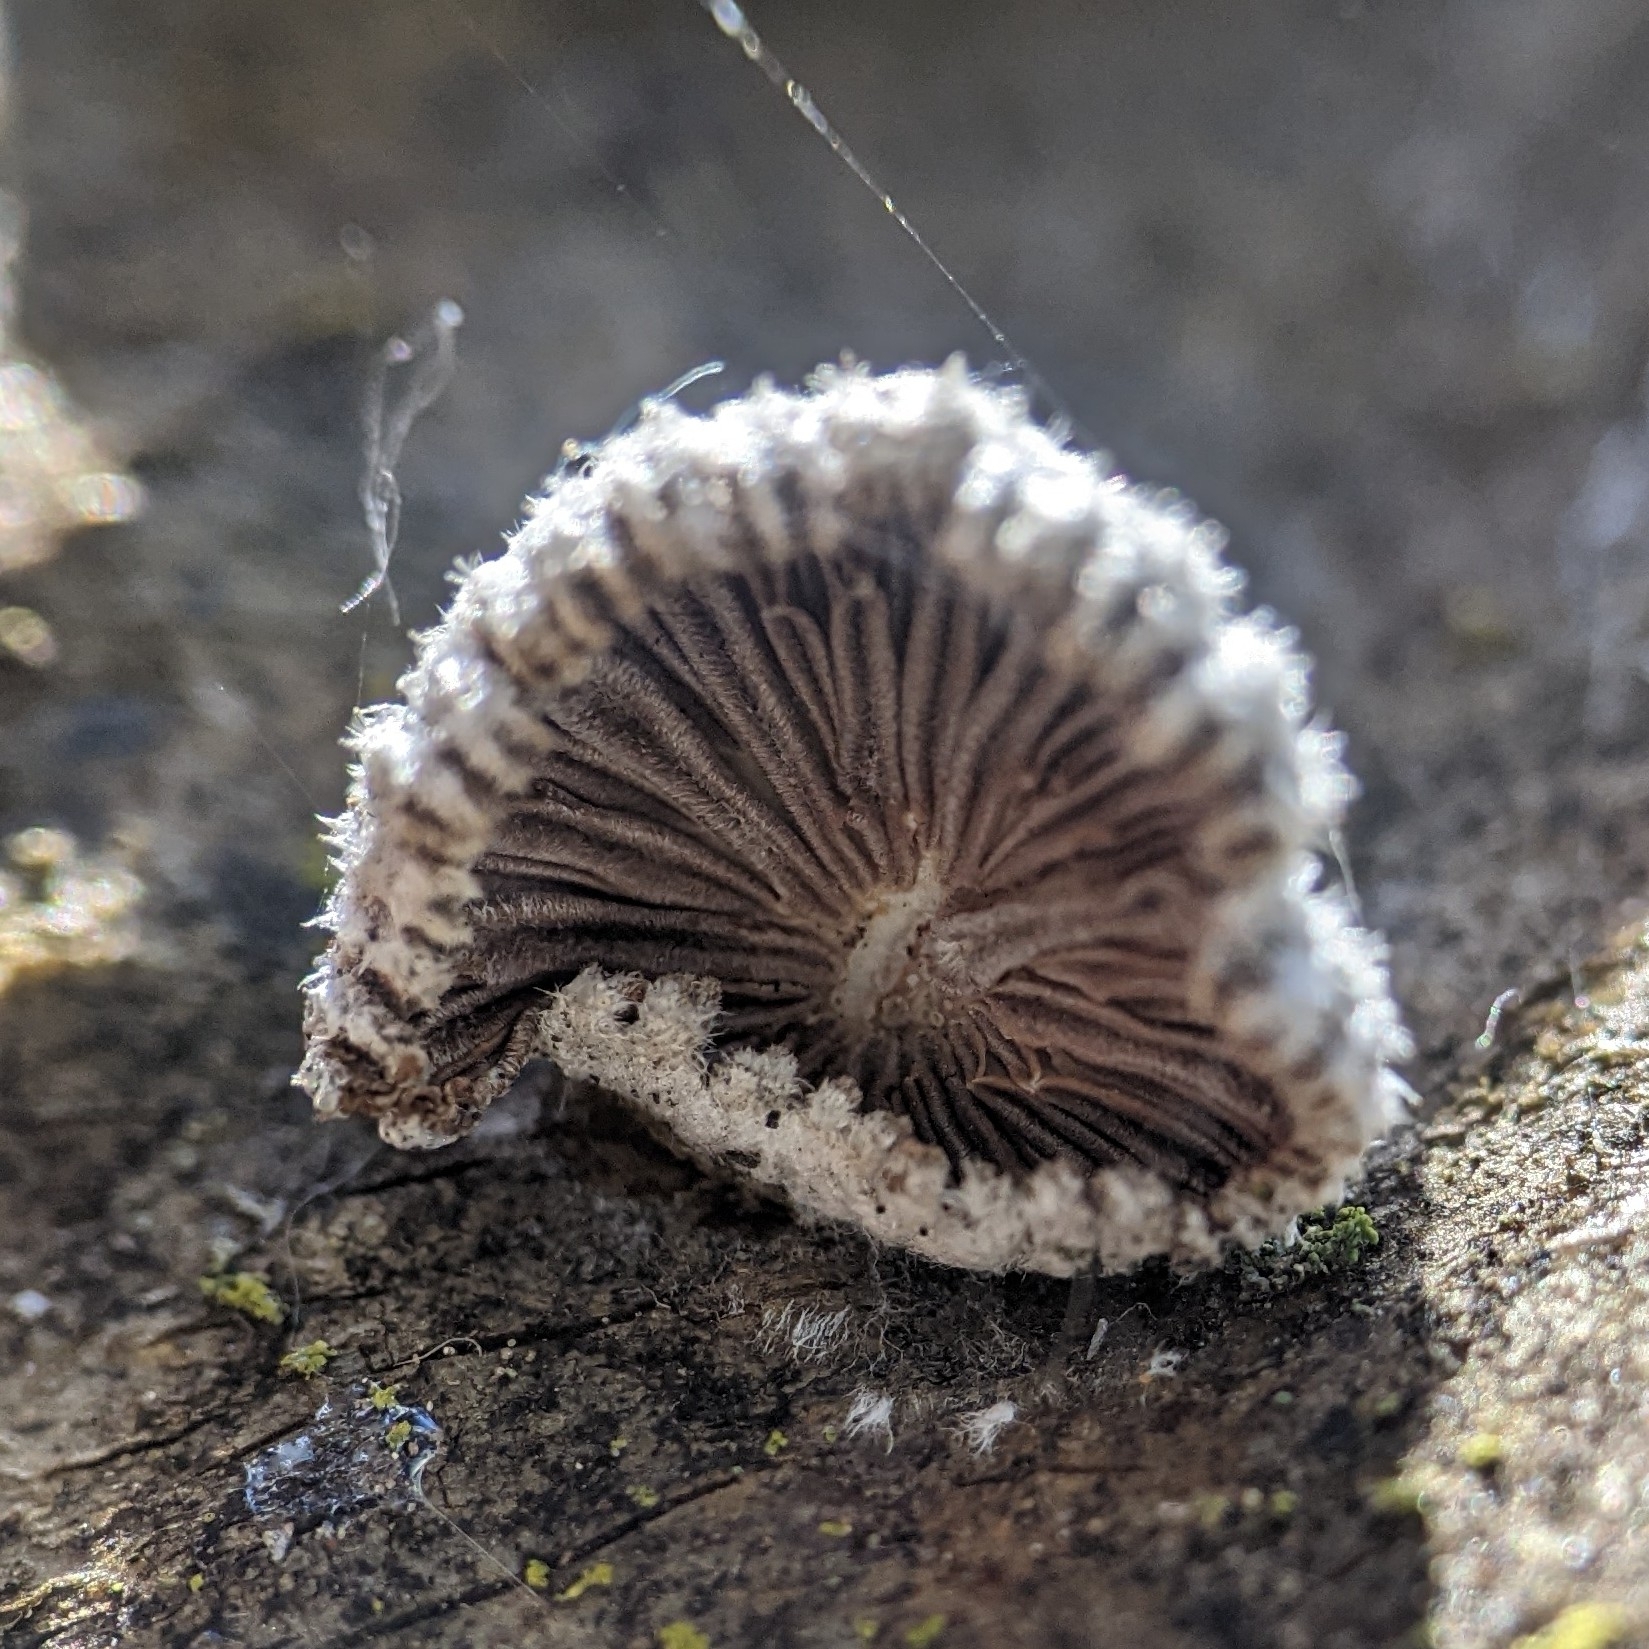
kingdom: Fungi
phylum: Basidiomycota
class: Agaricomycetes
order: Agaricales
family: Schizophyllaceae
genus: Schizophyllum
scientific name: Schizophyllum commune
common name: Common porecrust
